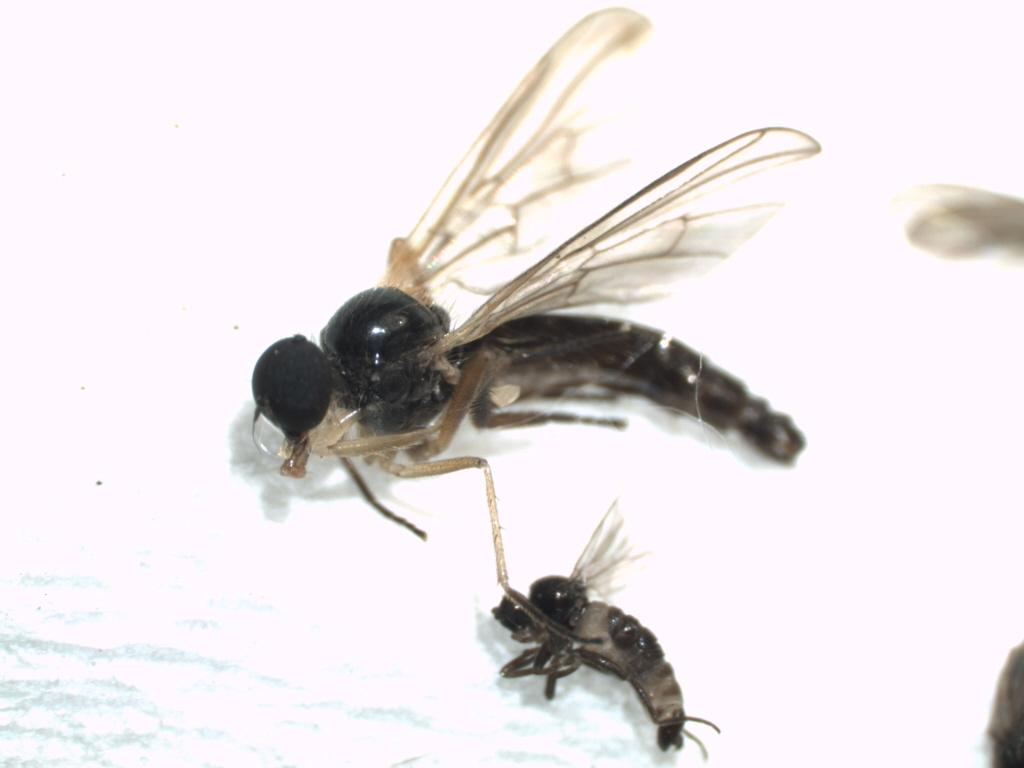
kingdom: Animalia
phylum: Arthropoda
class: Insecta
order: Diptera
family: Hybotidae
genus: Leptopeza
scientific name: Leptopeza flavipes
